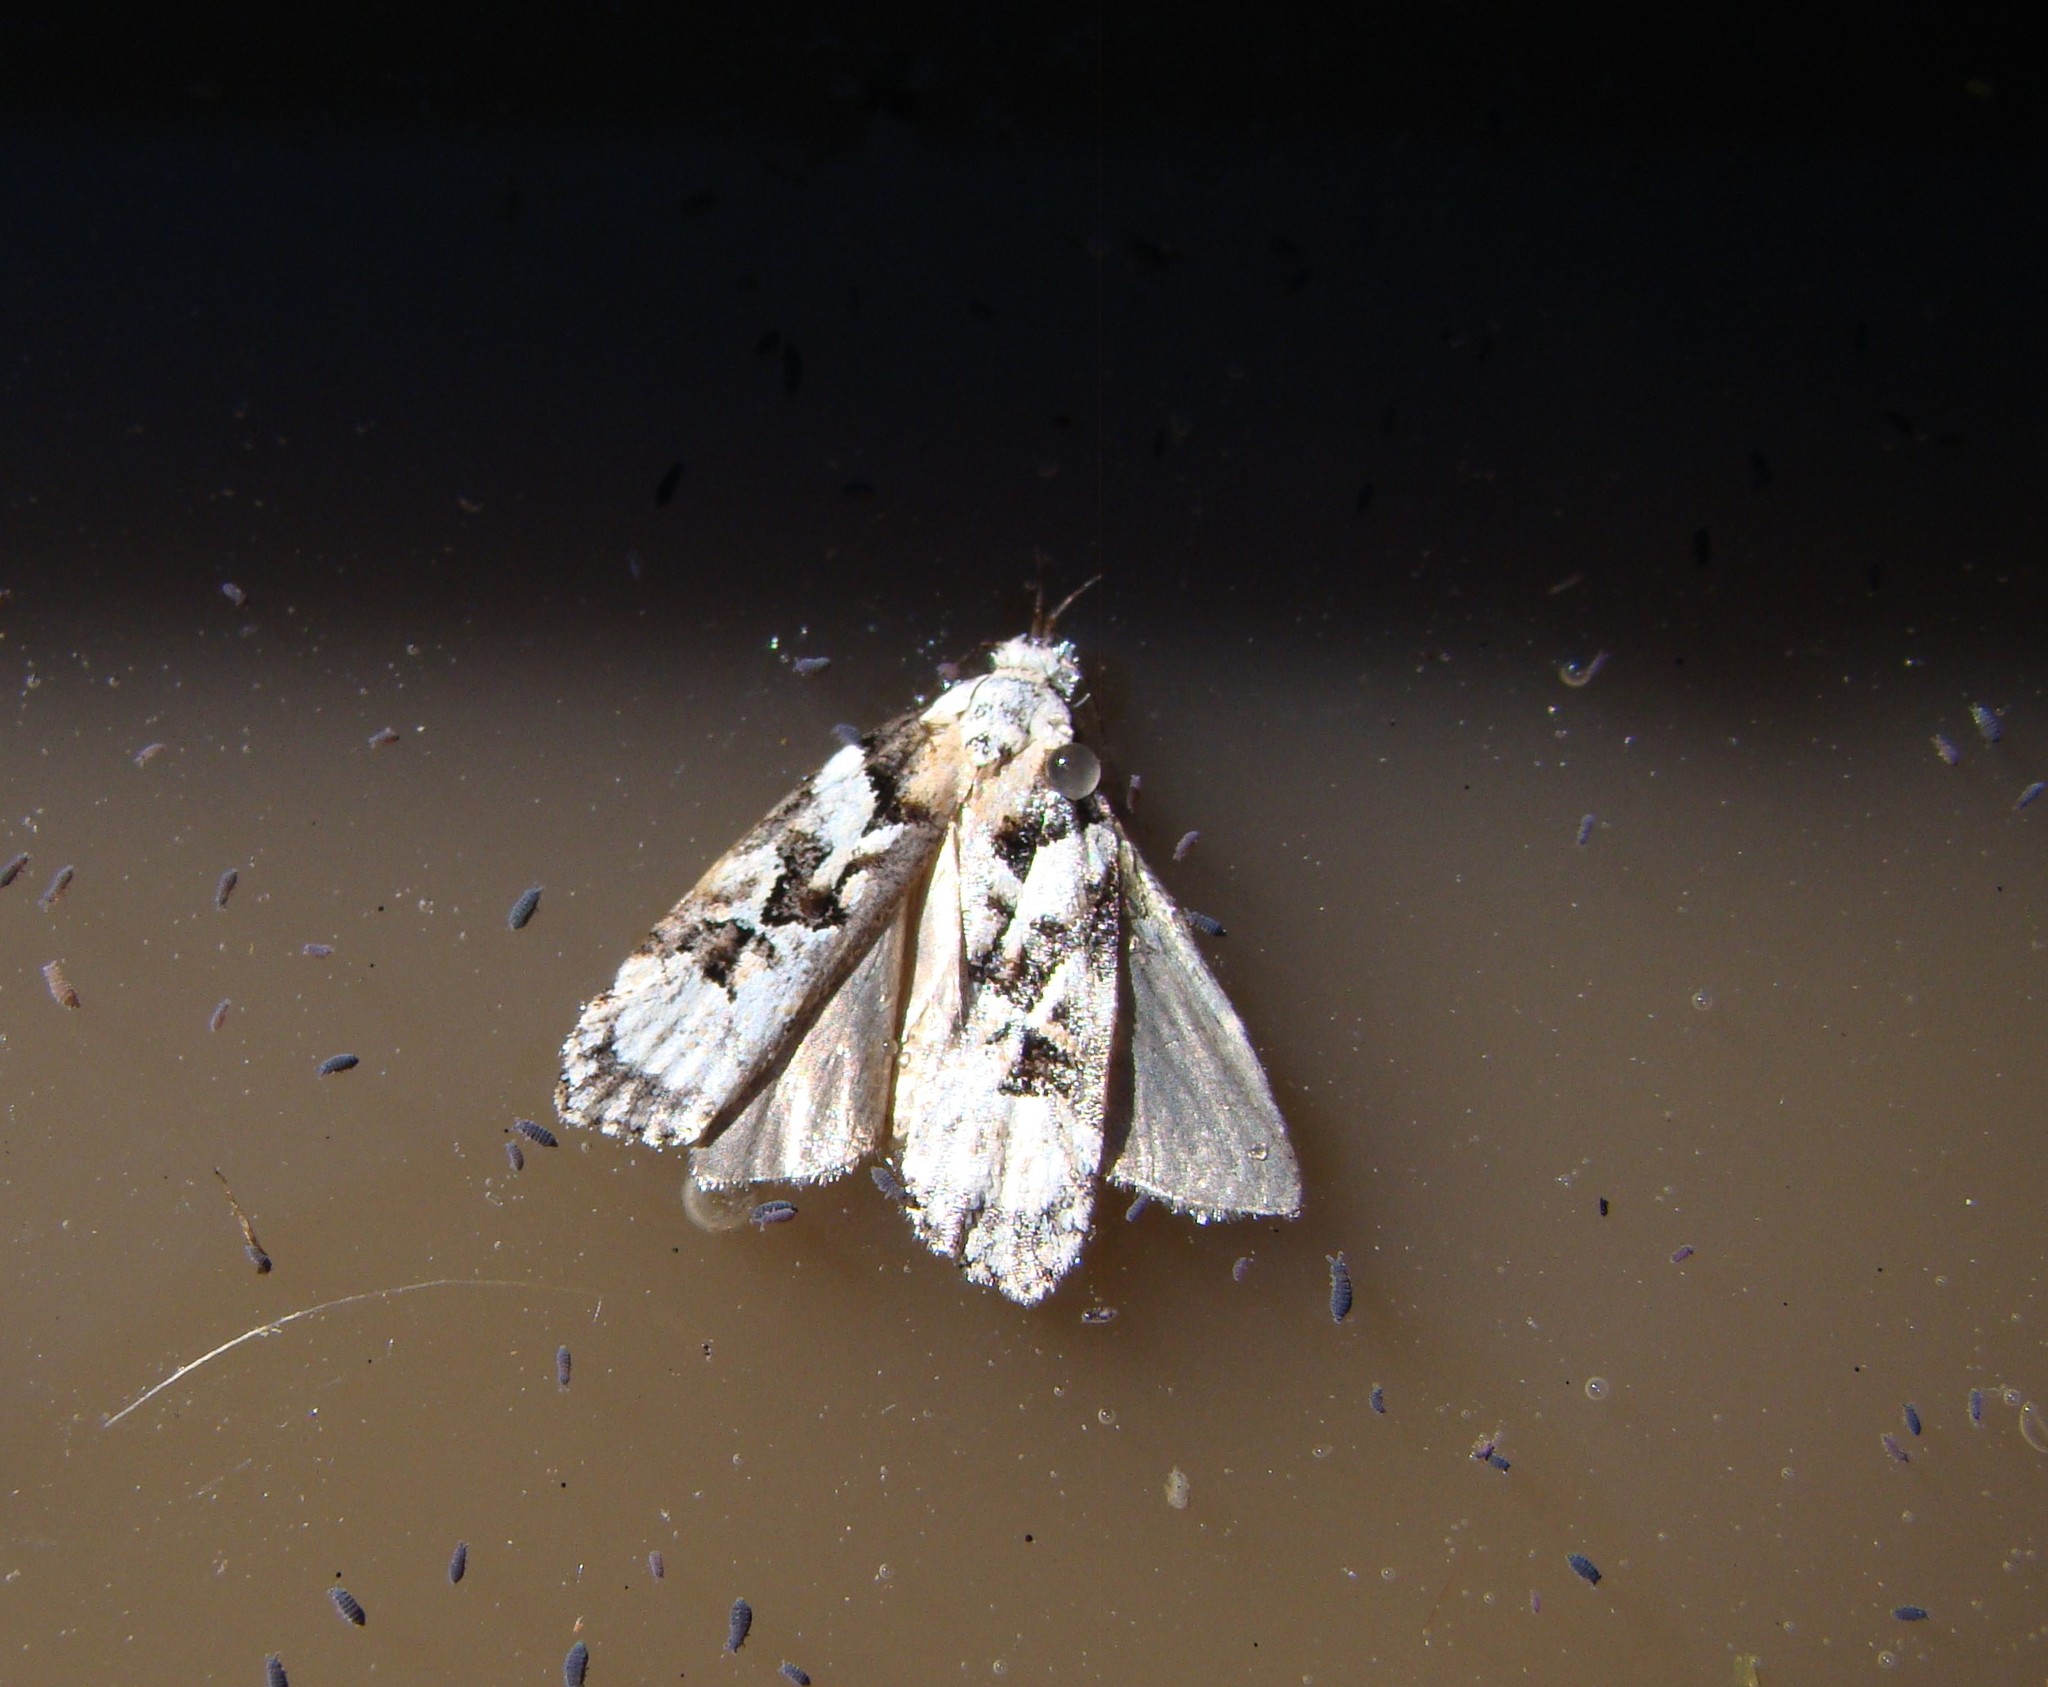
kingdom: Animalia
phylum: Arthropoda
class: Insecta
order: Lepidoptera
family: Oecophoridae
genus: Izatha
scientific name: Izatha epiphanes
